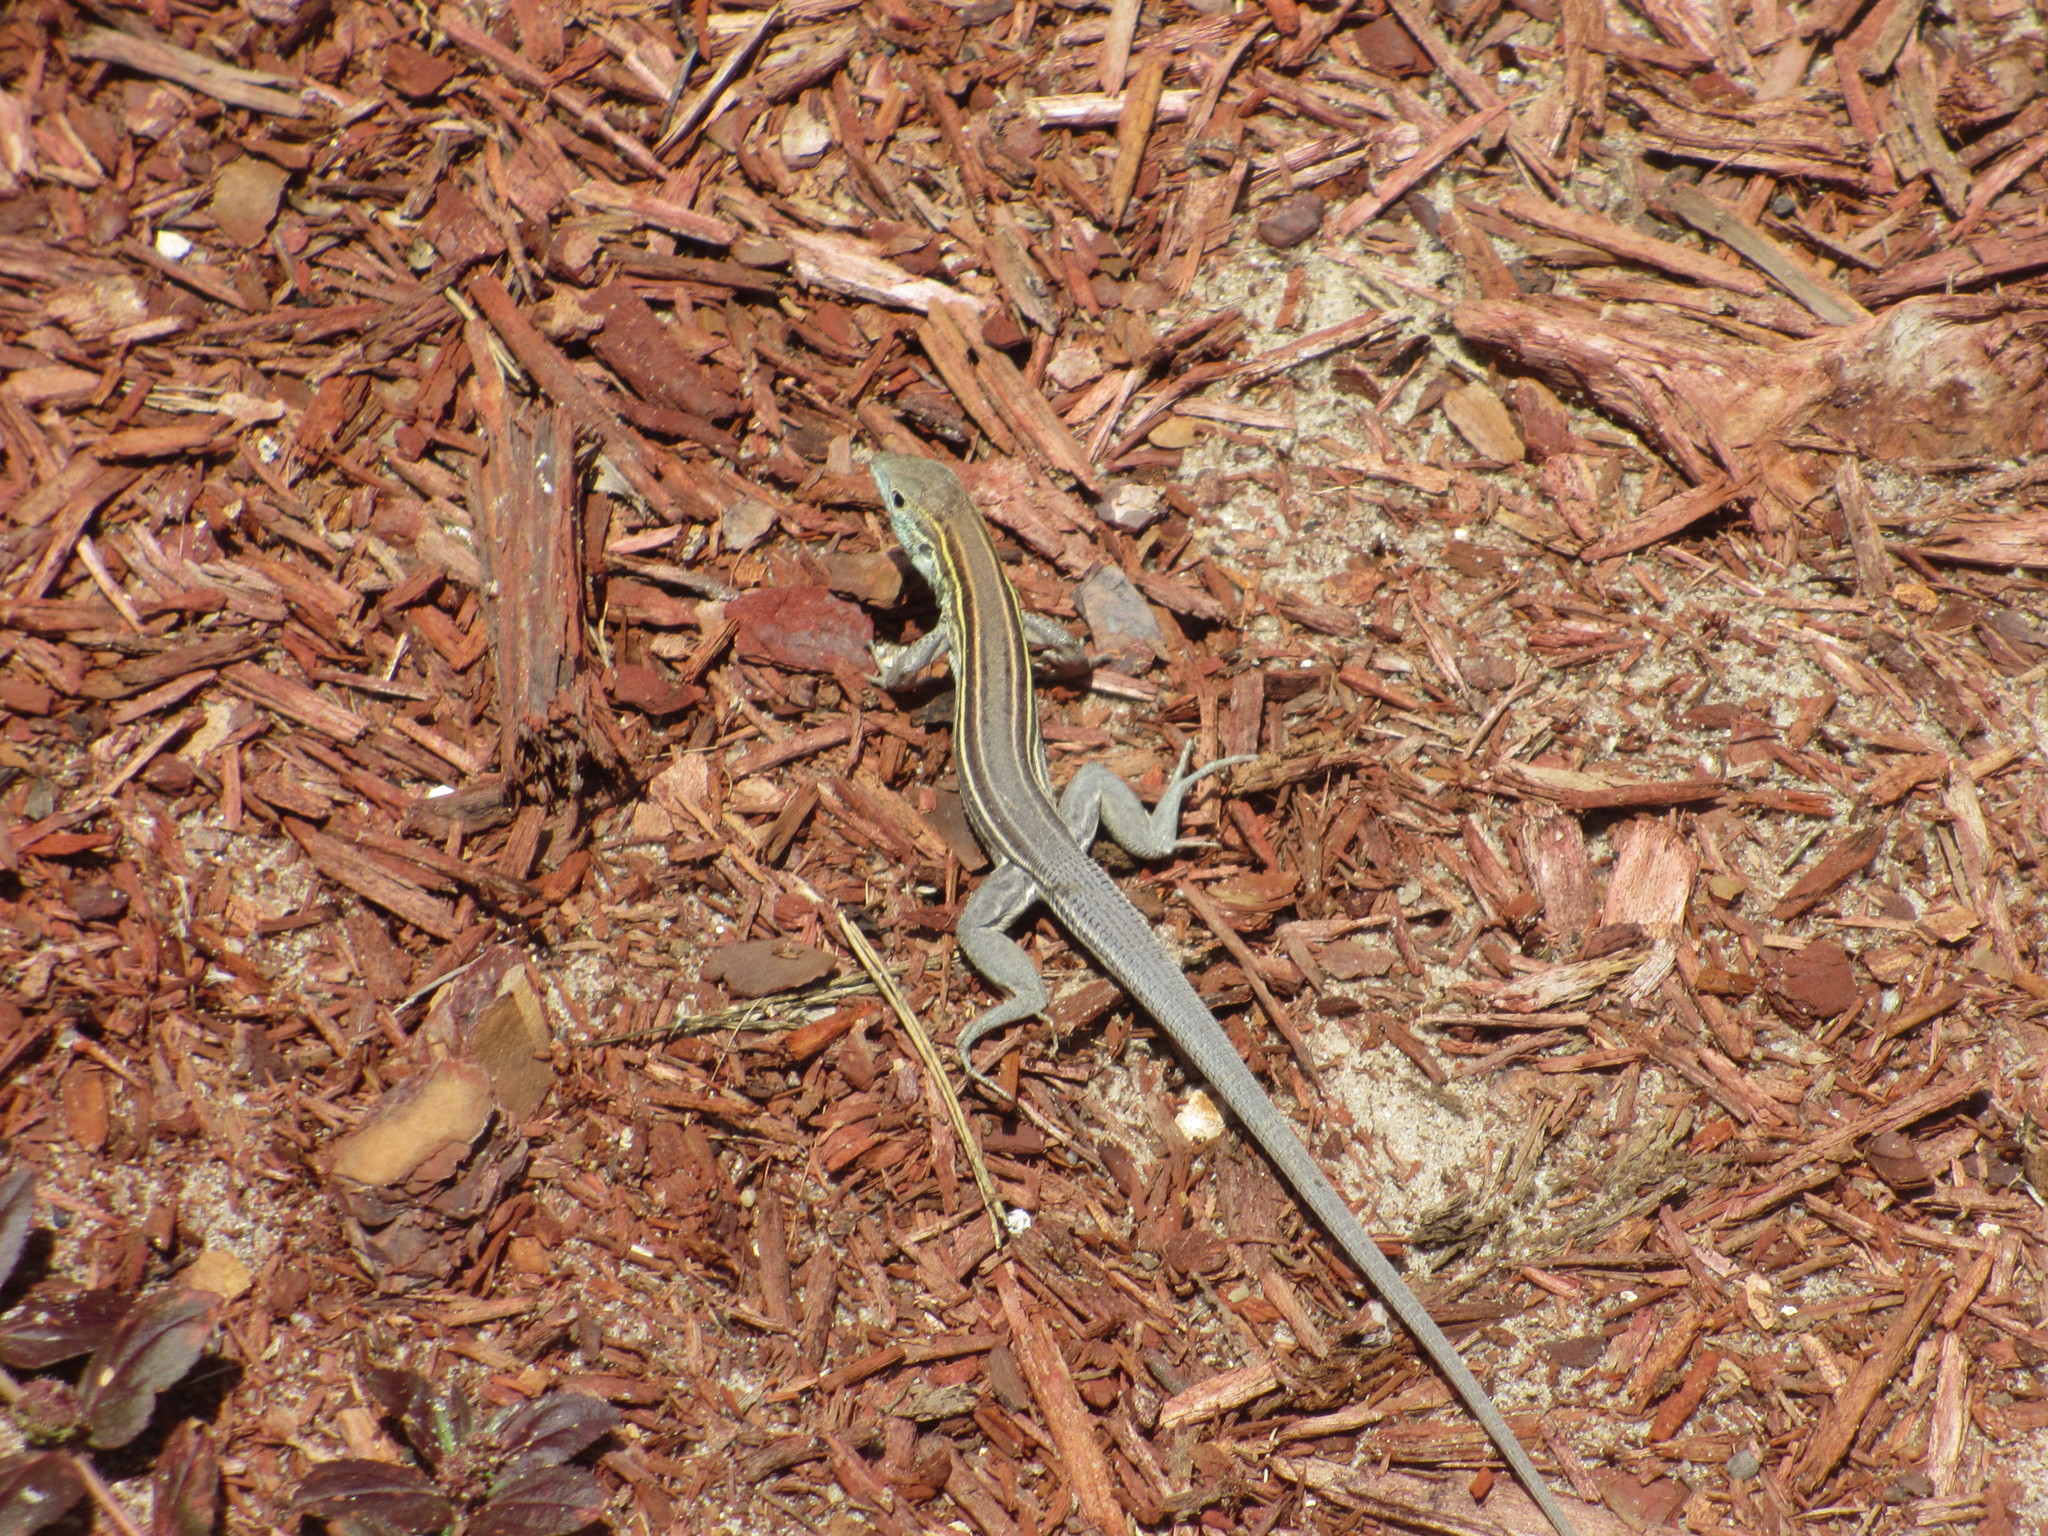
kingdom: Animalia
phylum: Chordata
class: Squamata
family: Teiidae
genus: Aspidoscelis
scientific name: Aspidoscelis sexlineatus
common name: Six-lined racerunner
